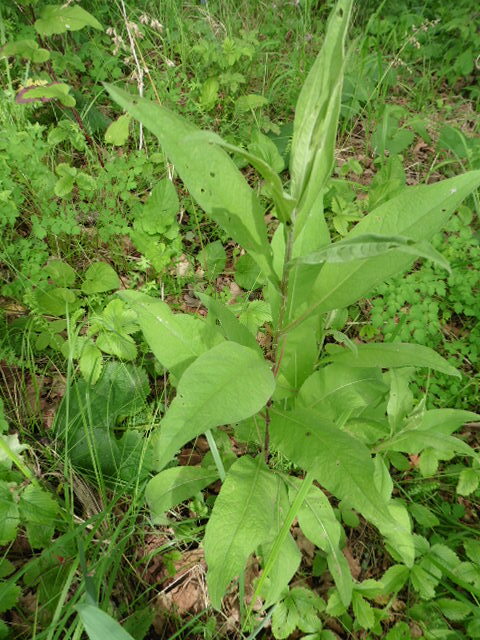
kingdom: Plantae
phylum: Tracheophyta
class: Magnoliopsida
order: Asterales
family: Asteraceae
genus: Centaurea
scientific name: Centaurea phrygia
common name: Wig knapweed
